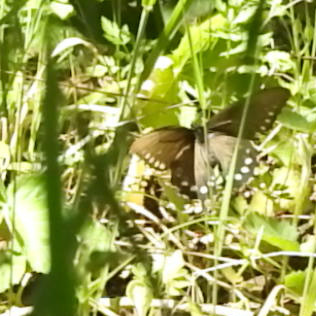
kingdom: Animalia
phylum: Arthropoda
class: Insecta
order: Lepidoptera
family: Papilionidae
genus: Battus
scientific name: Battus philenor
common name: Pipevine swallowtail
